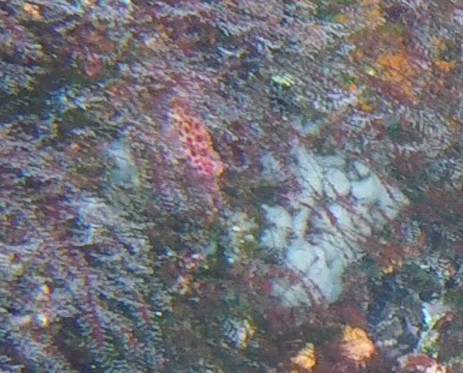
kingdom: Animalia
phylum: Chordata
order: Perciformes
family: Cirrhitidae
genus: Cirrhitichthys
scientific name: Cirrhitichthys oxycephalus
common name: Spotted hawkfish
